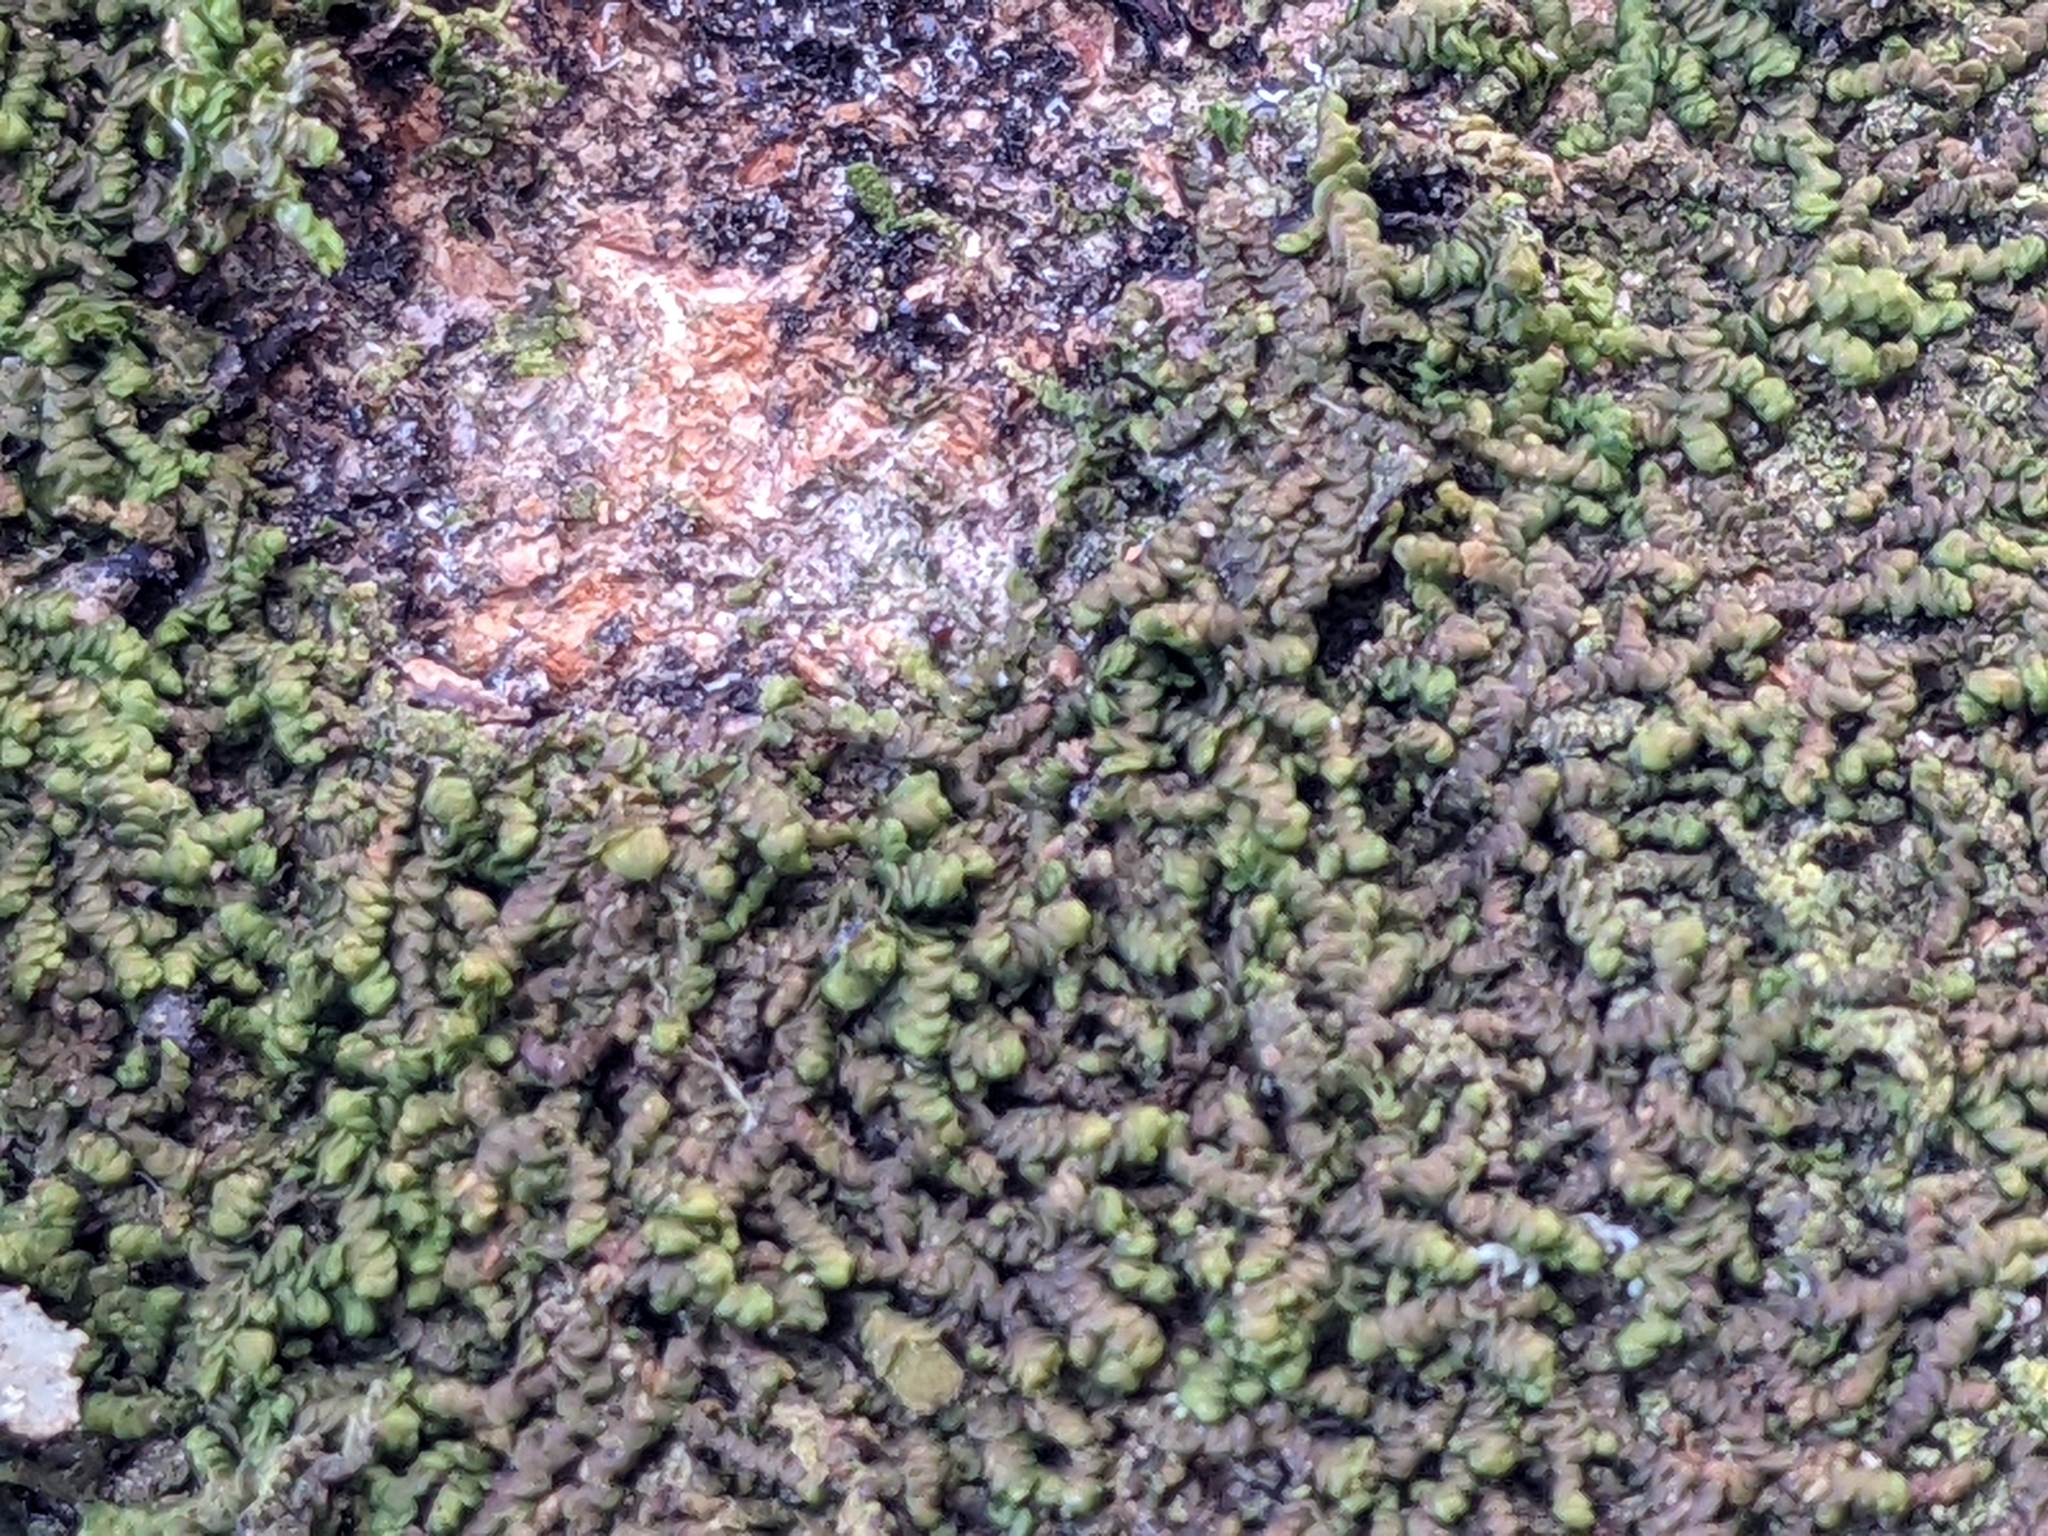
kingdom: Plantae
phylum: Marchantiophyta
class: Jungermanniopsida
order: Porellales
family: Frullaniaceae
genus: Frullania
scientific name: Frullania dilatata
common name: Dilated scalewort
